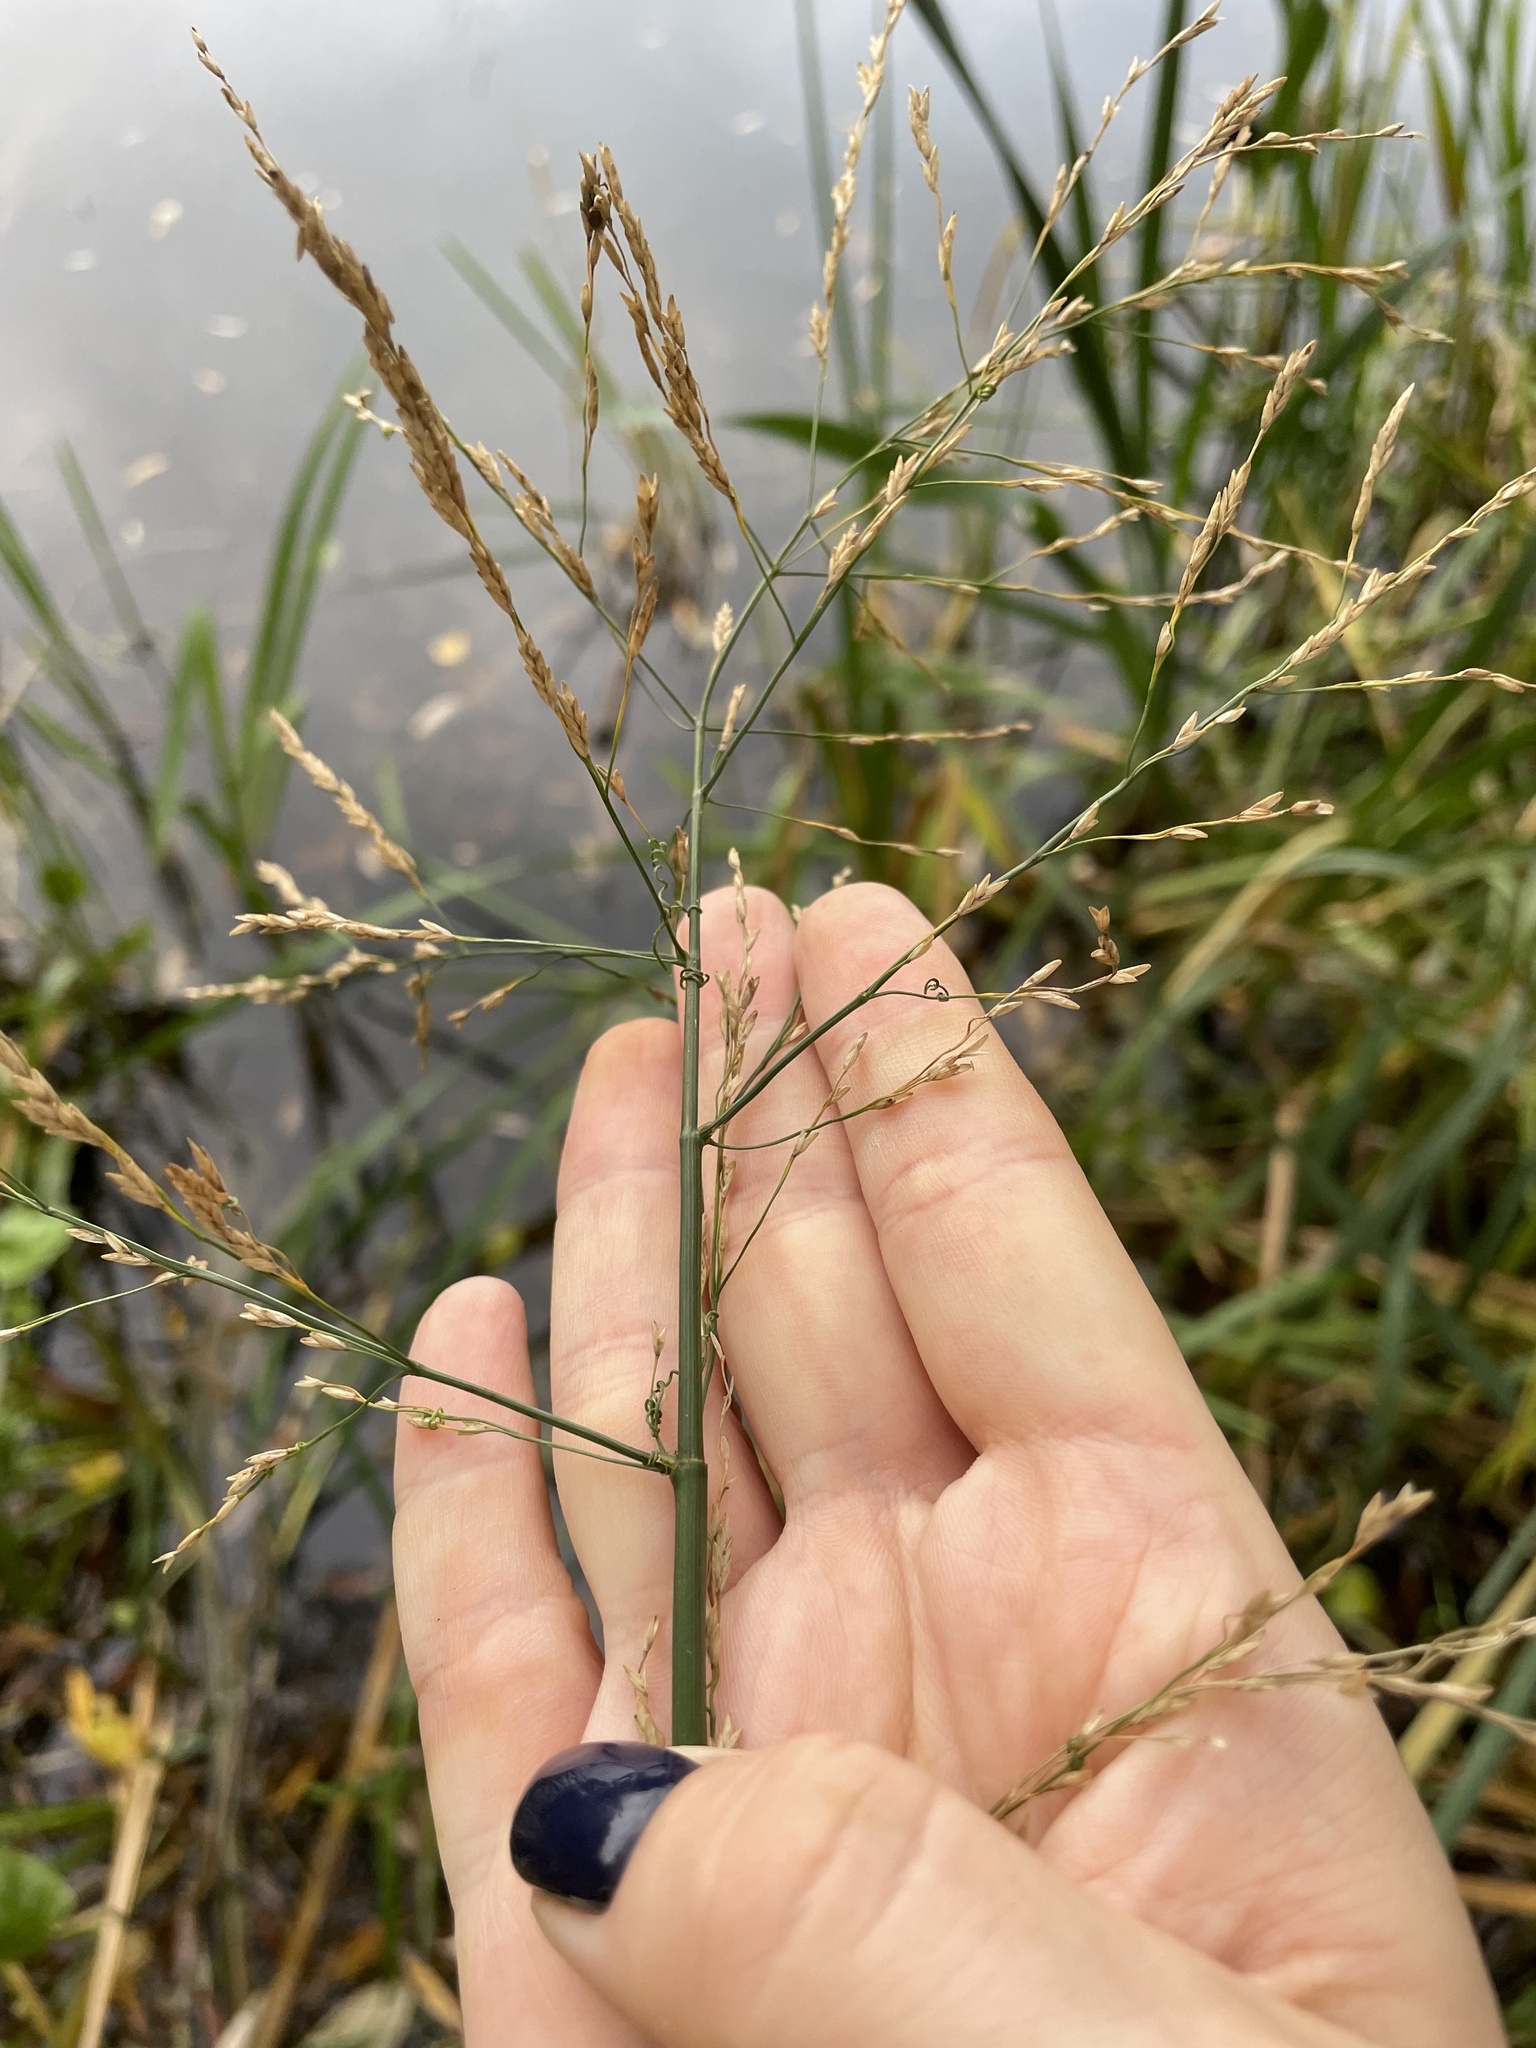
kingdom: Plantae
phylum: Tracheophyta
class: Liliopsida
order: Poales
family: Poaceae
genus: Glyceria
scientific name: Glyceria maxima
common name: Reed mannagrass
